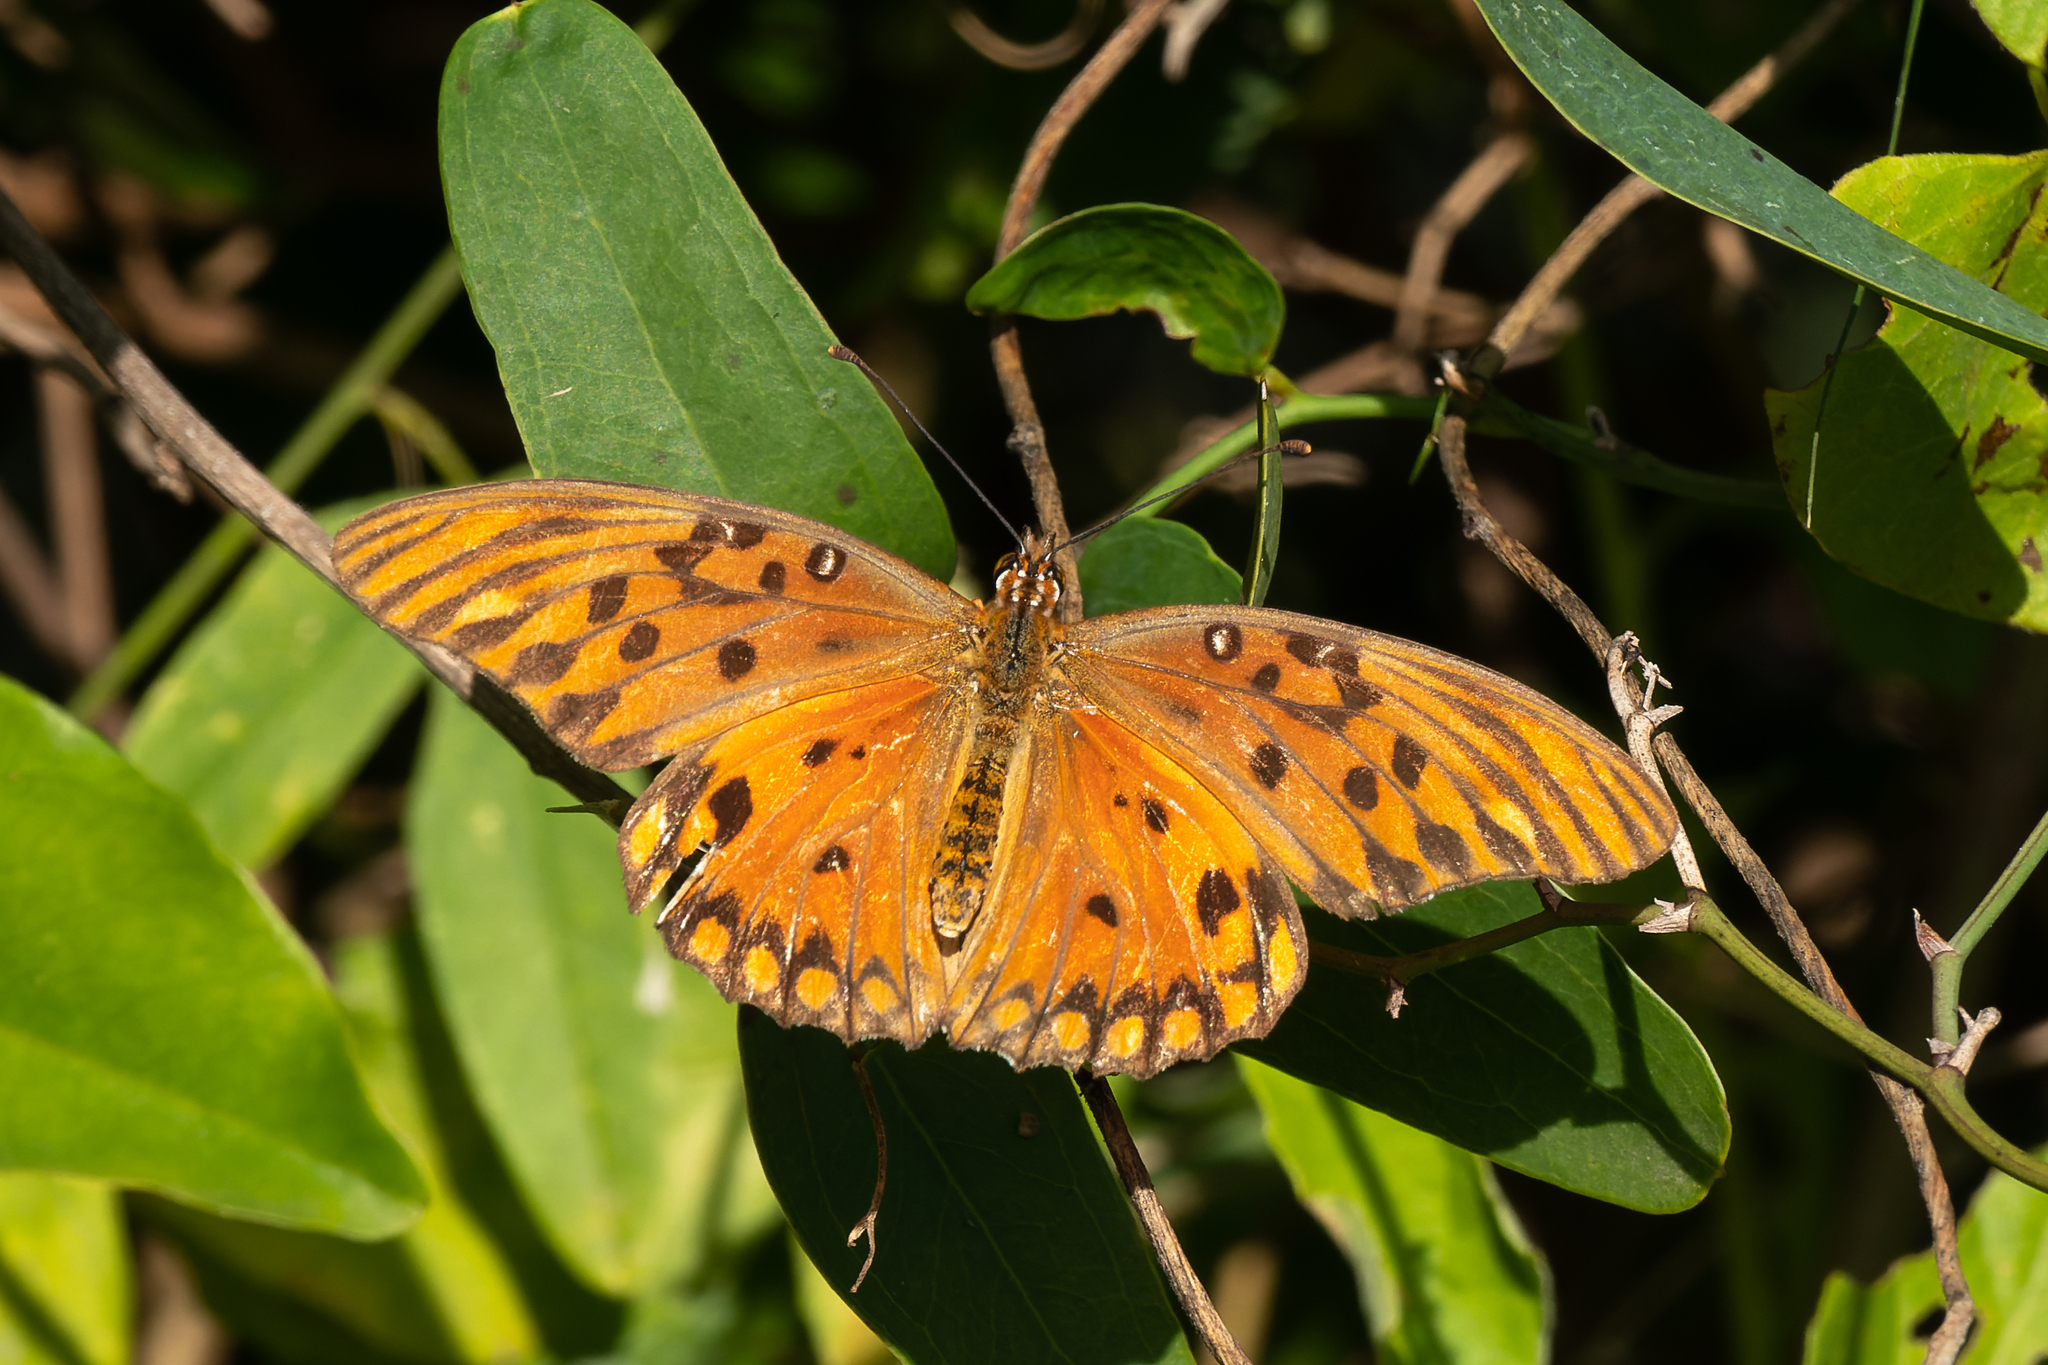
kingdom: Animalia
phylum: Arthropoda
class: Insecta
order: Lepidoptera
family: Nymphalidae
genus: Dione
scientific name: Dione vanillae
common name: Gulf fritillary
